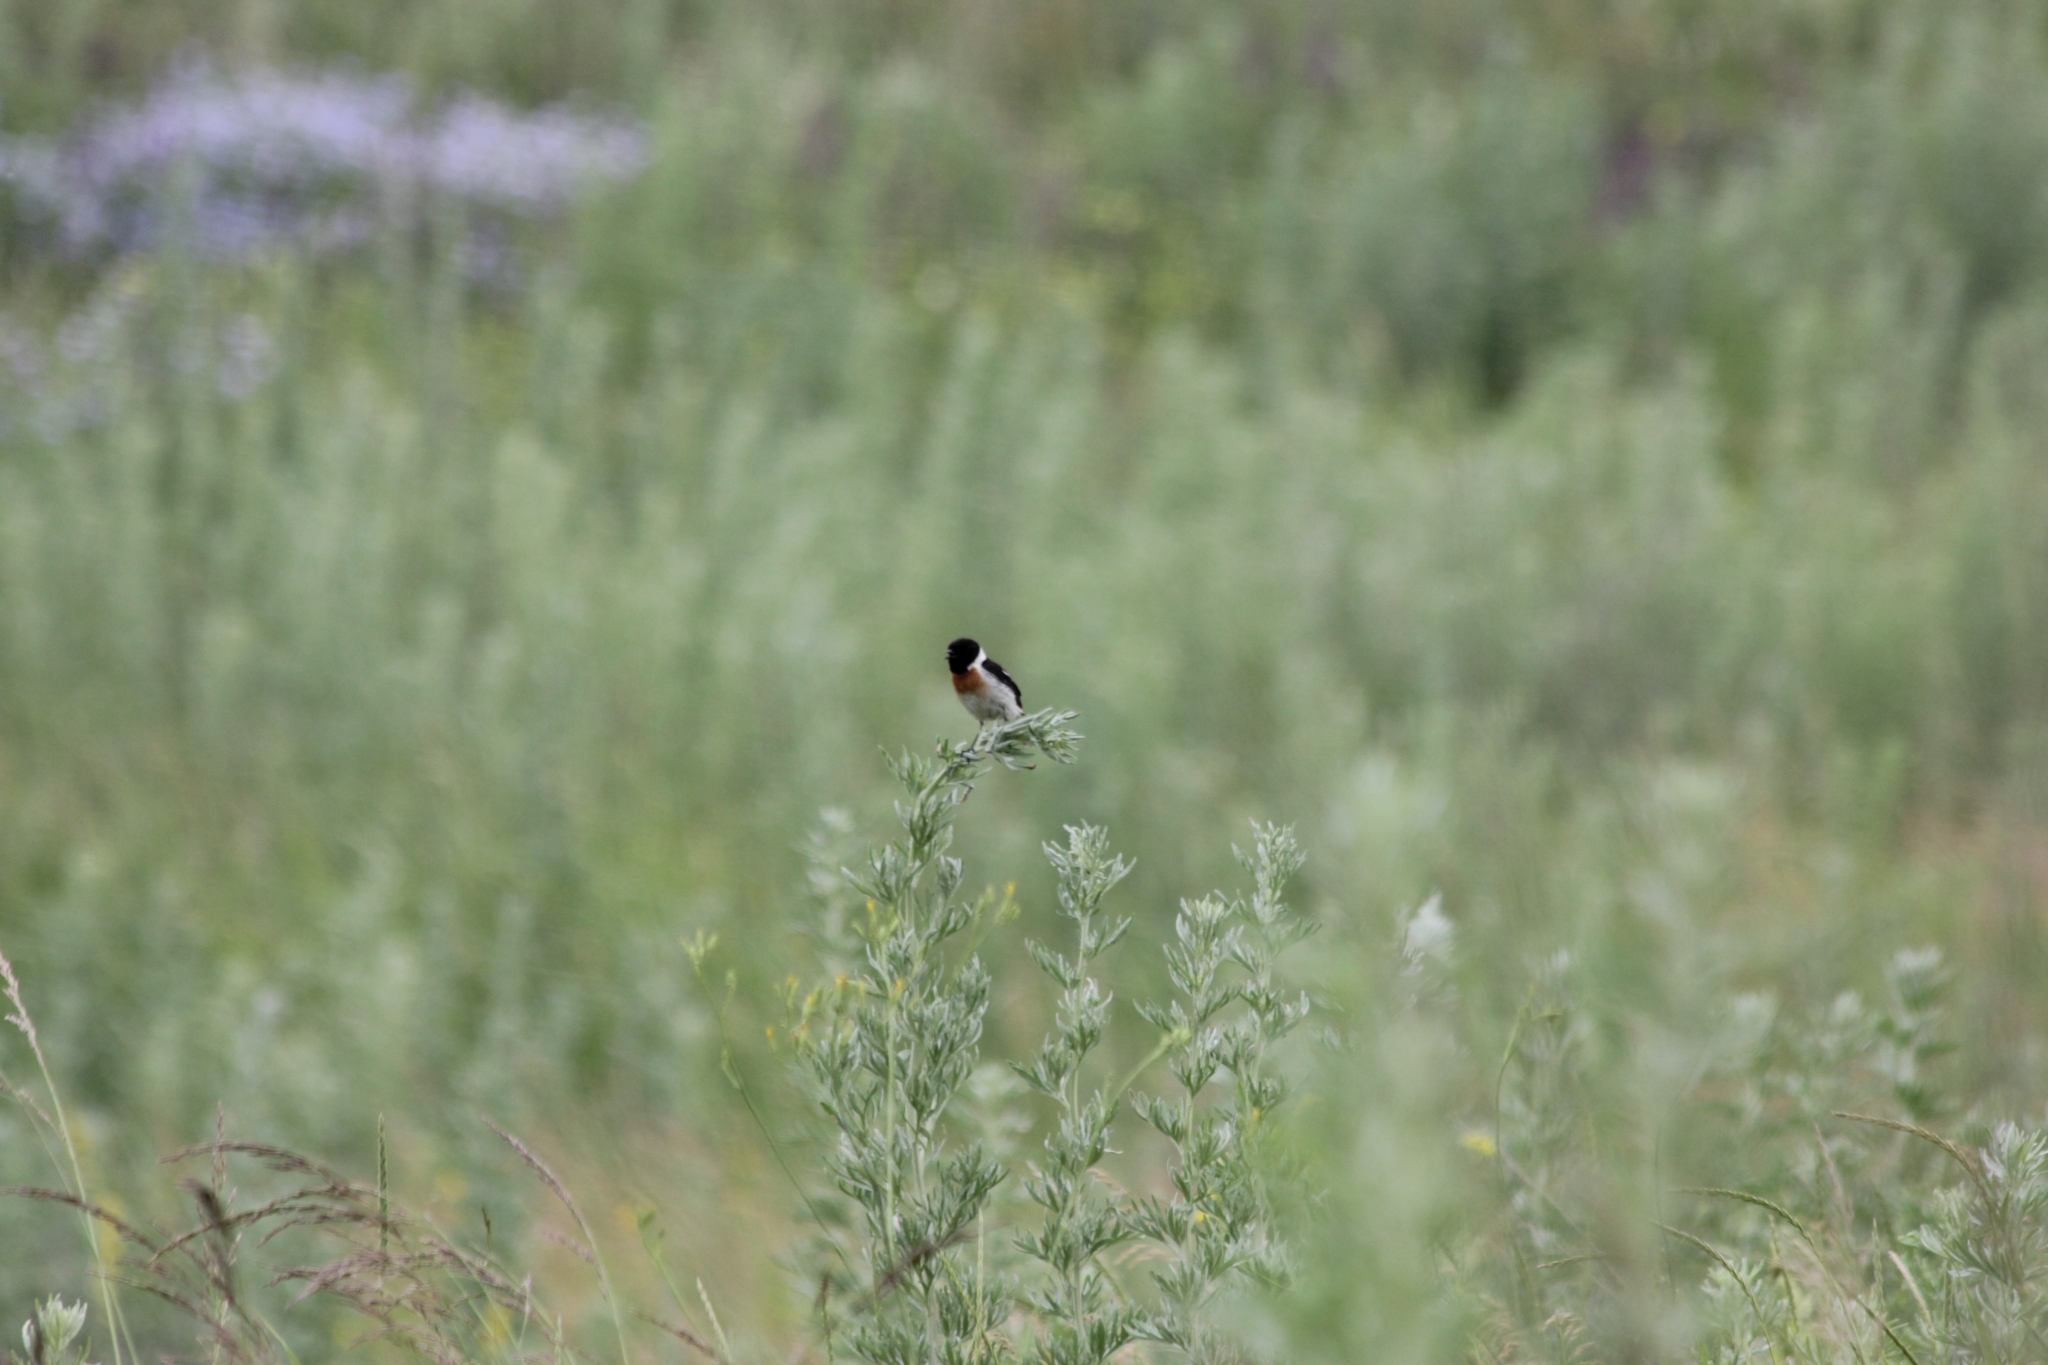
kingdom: Animalia
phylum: Chordata
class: Aves
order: Passeriformes
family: Muscicapidae
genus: Saxicola
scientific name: Saxicola maurus
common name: Siberian stonechat
